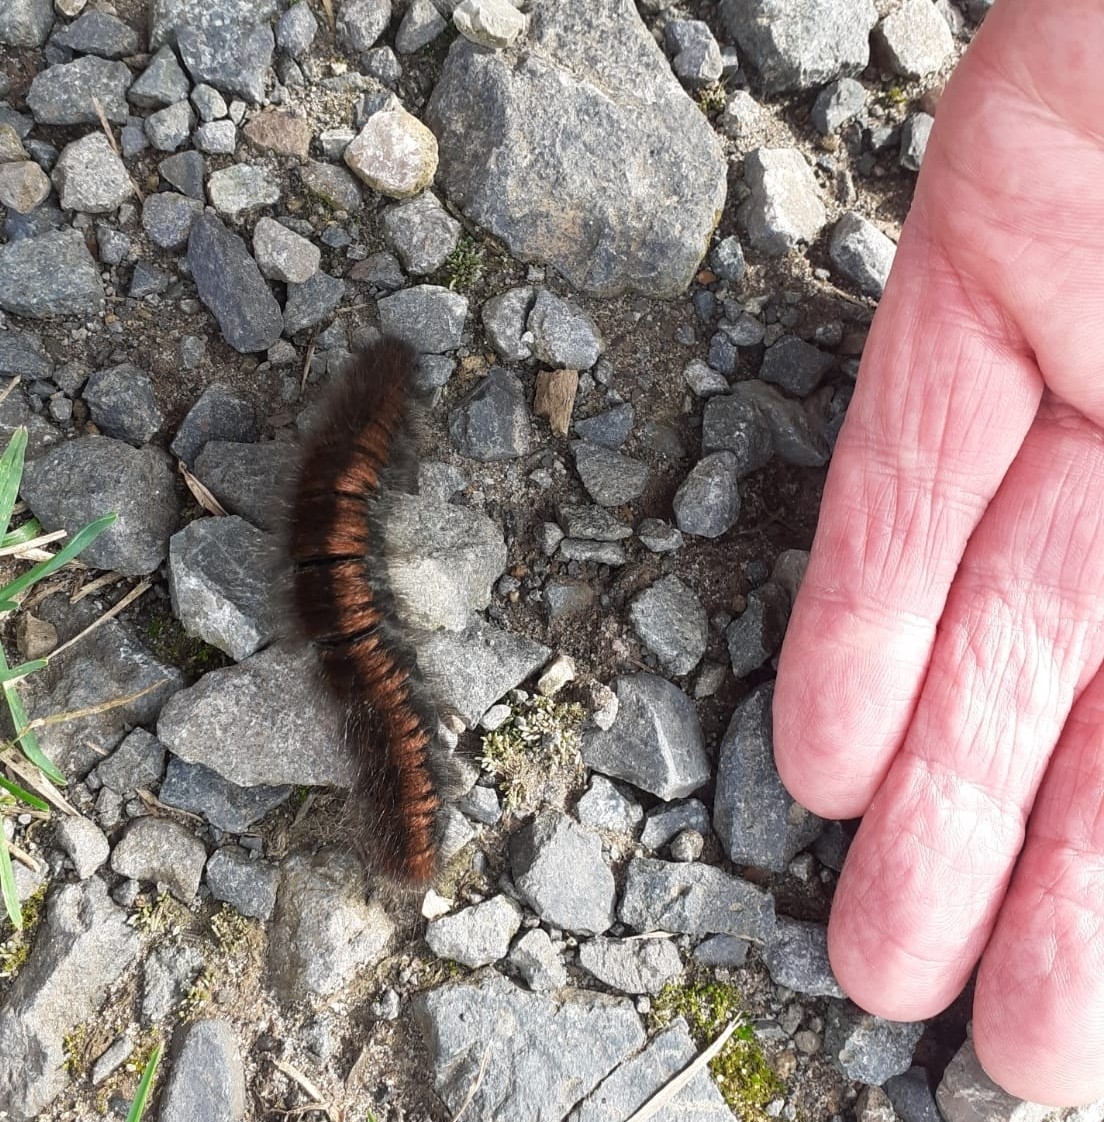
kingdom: Animalia
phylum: Arthropoda
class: Insecta
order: Lepidoptera
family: Lasiocampidae
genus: Macrothylacia
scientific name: Macrothylacia rubi
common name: Fox moth
